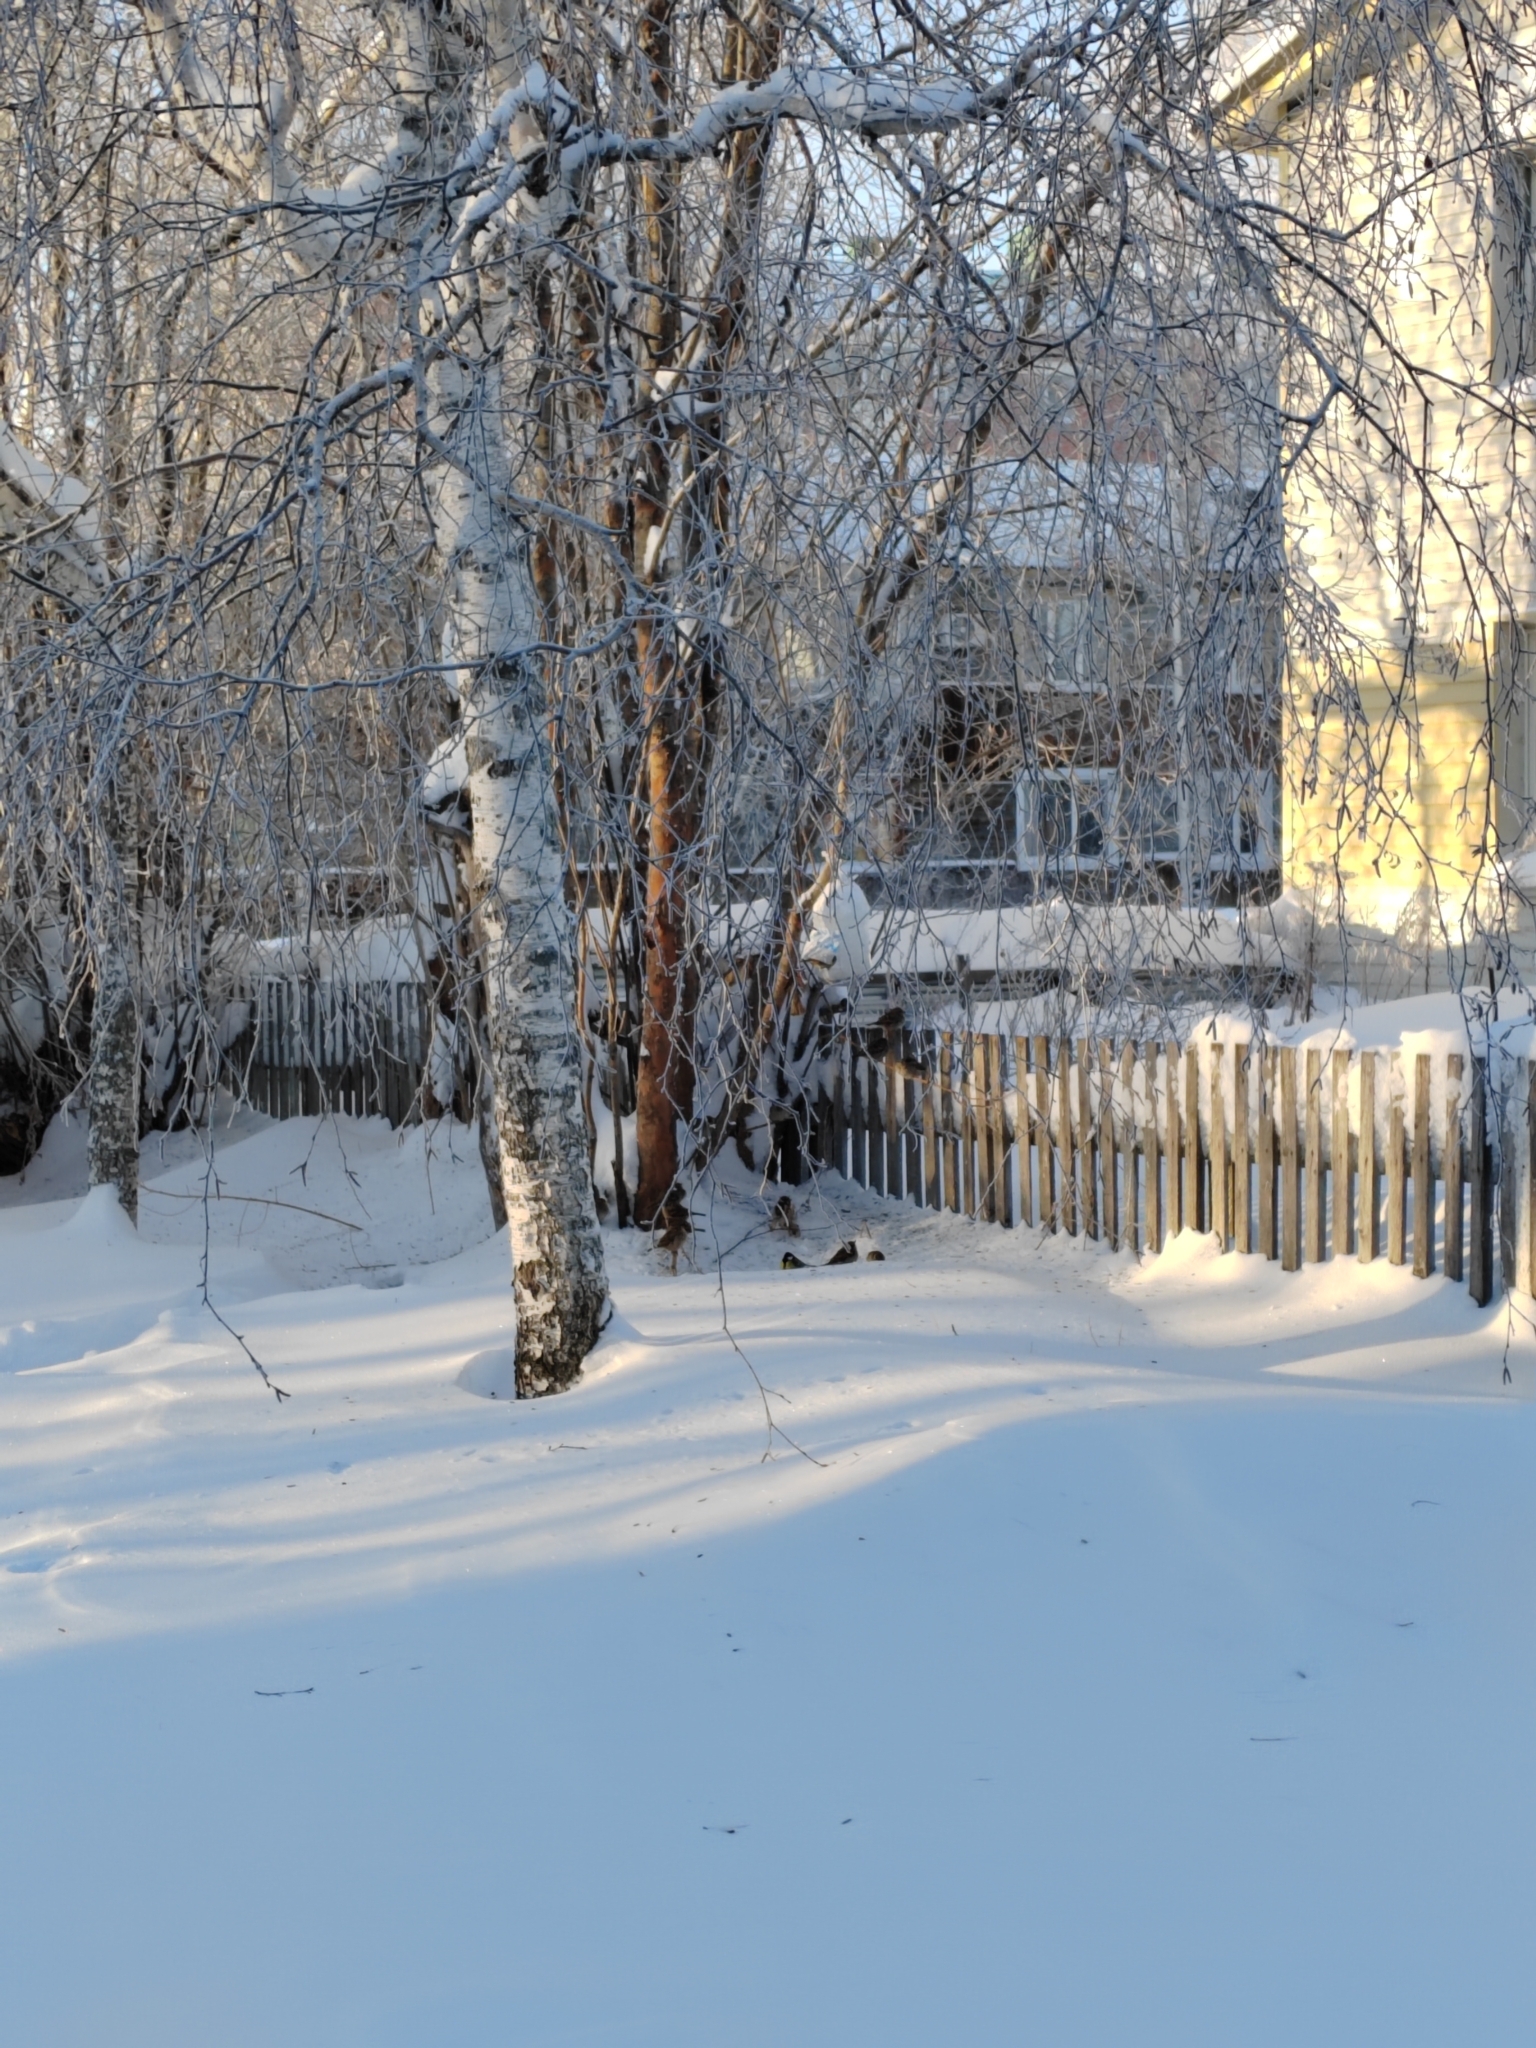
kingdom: Animalia
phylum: Chordata
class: Aves
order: Passeriformes
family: Passeridae
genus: Passer
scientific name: Passer montanus
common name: Eurasian tree sparrow
